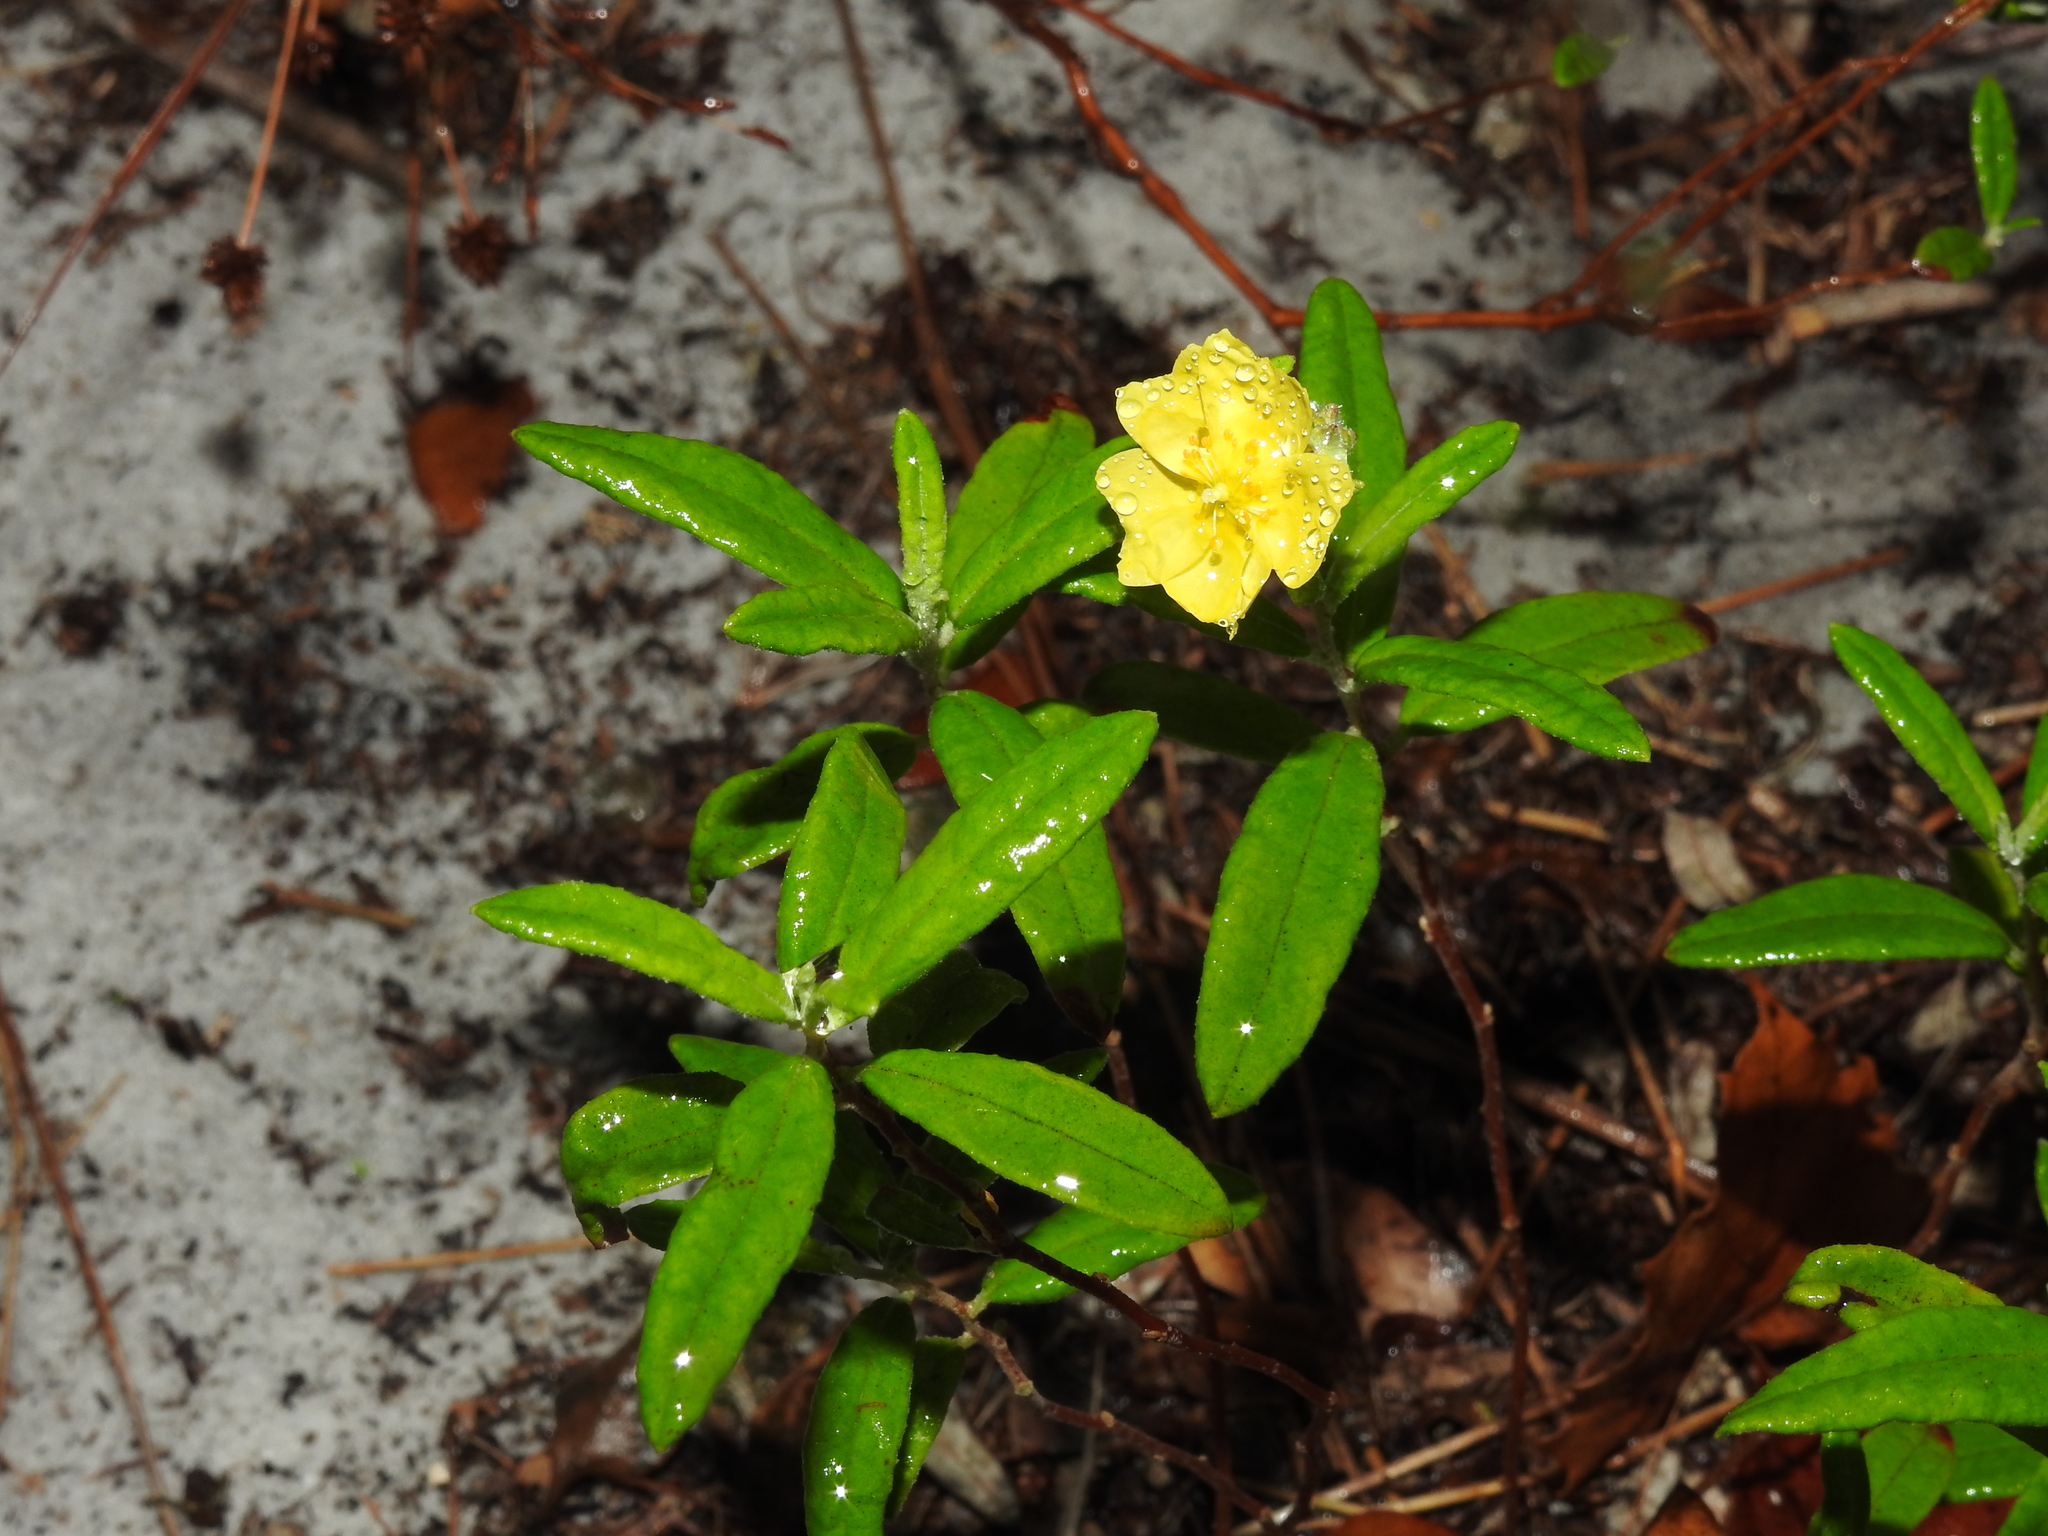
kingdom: Plantae
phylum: Tracheophyta
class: Magnoliopsida
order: Malvales
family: Cistaceae
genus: Crocanthemum
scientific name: Crocanthemum corymbosum
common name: Pinebarren sun-rose
